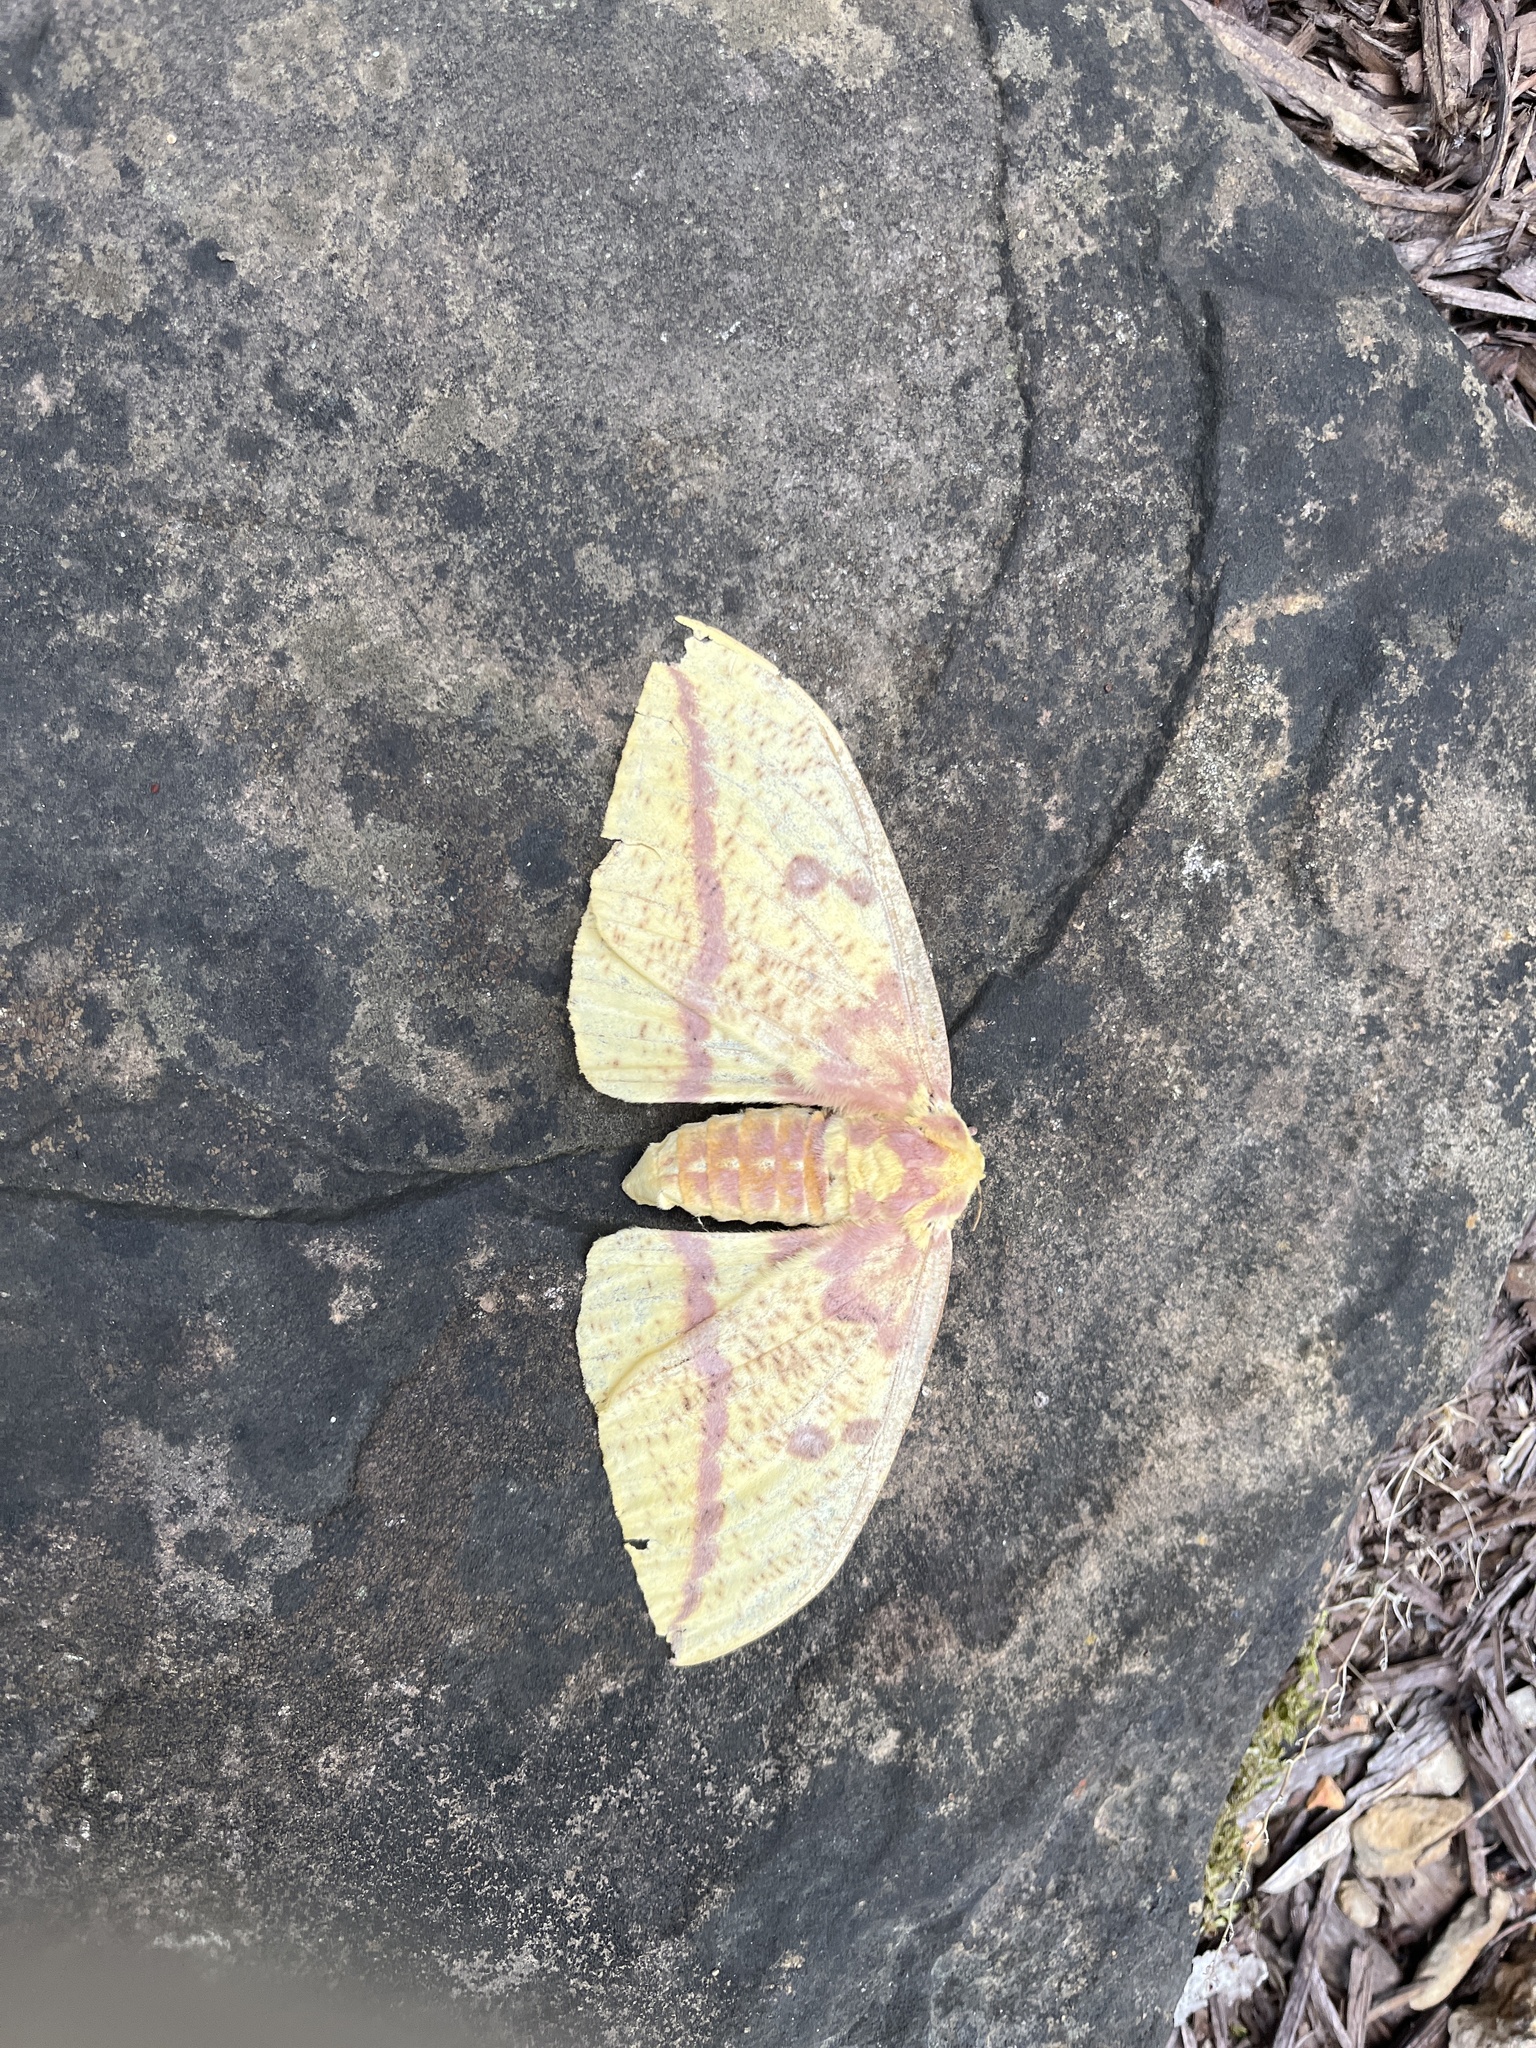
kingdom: Animalia
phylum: Arthropoda
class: Insecta
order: Lepidoptera
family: Saturniidae
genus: Eacles
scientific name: Eacles imperialis
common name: Imperial moth
